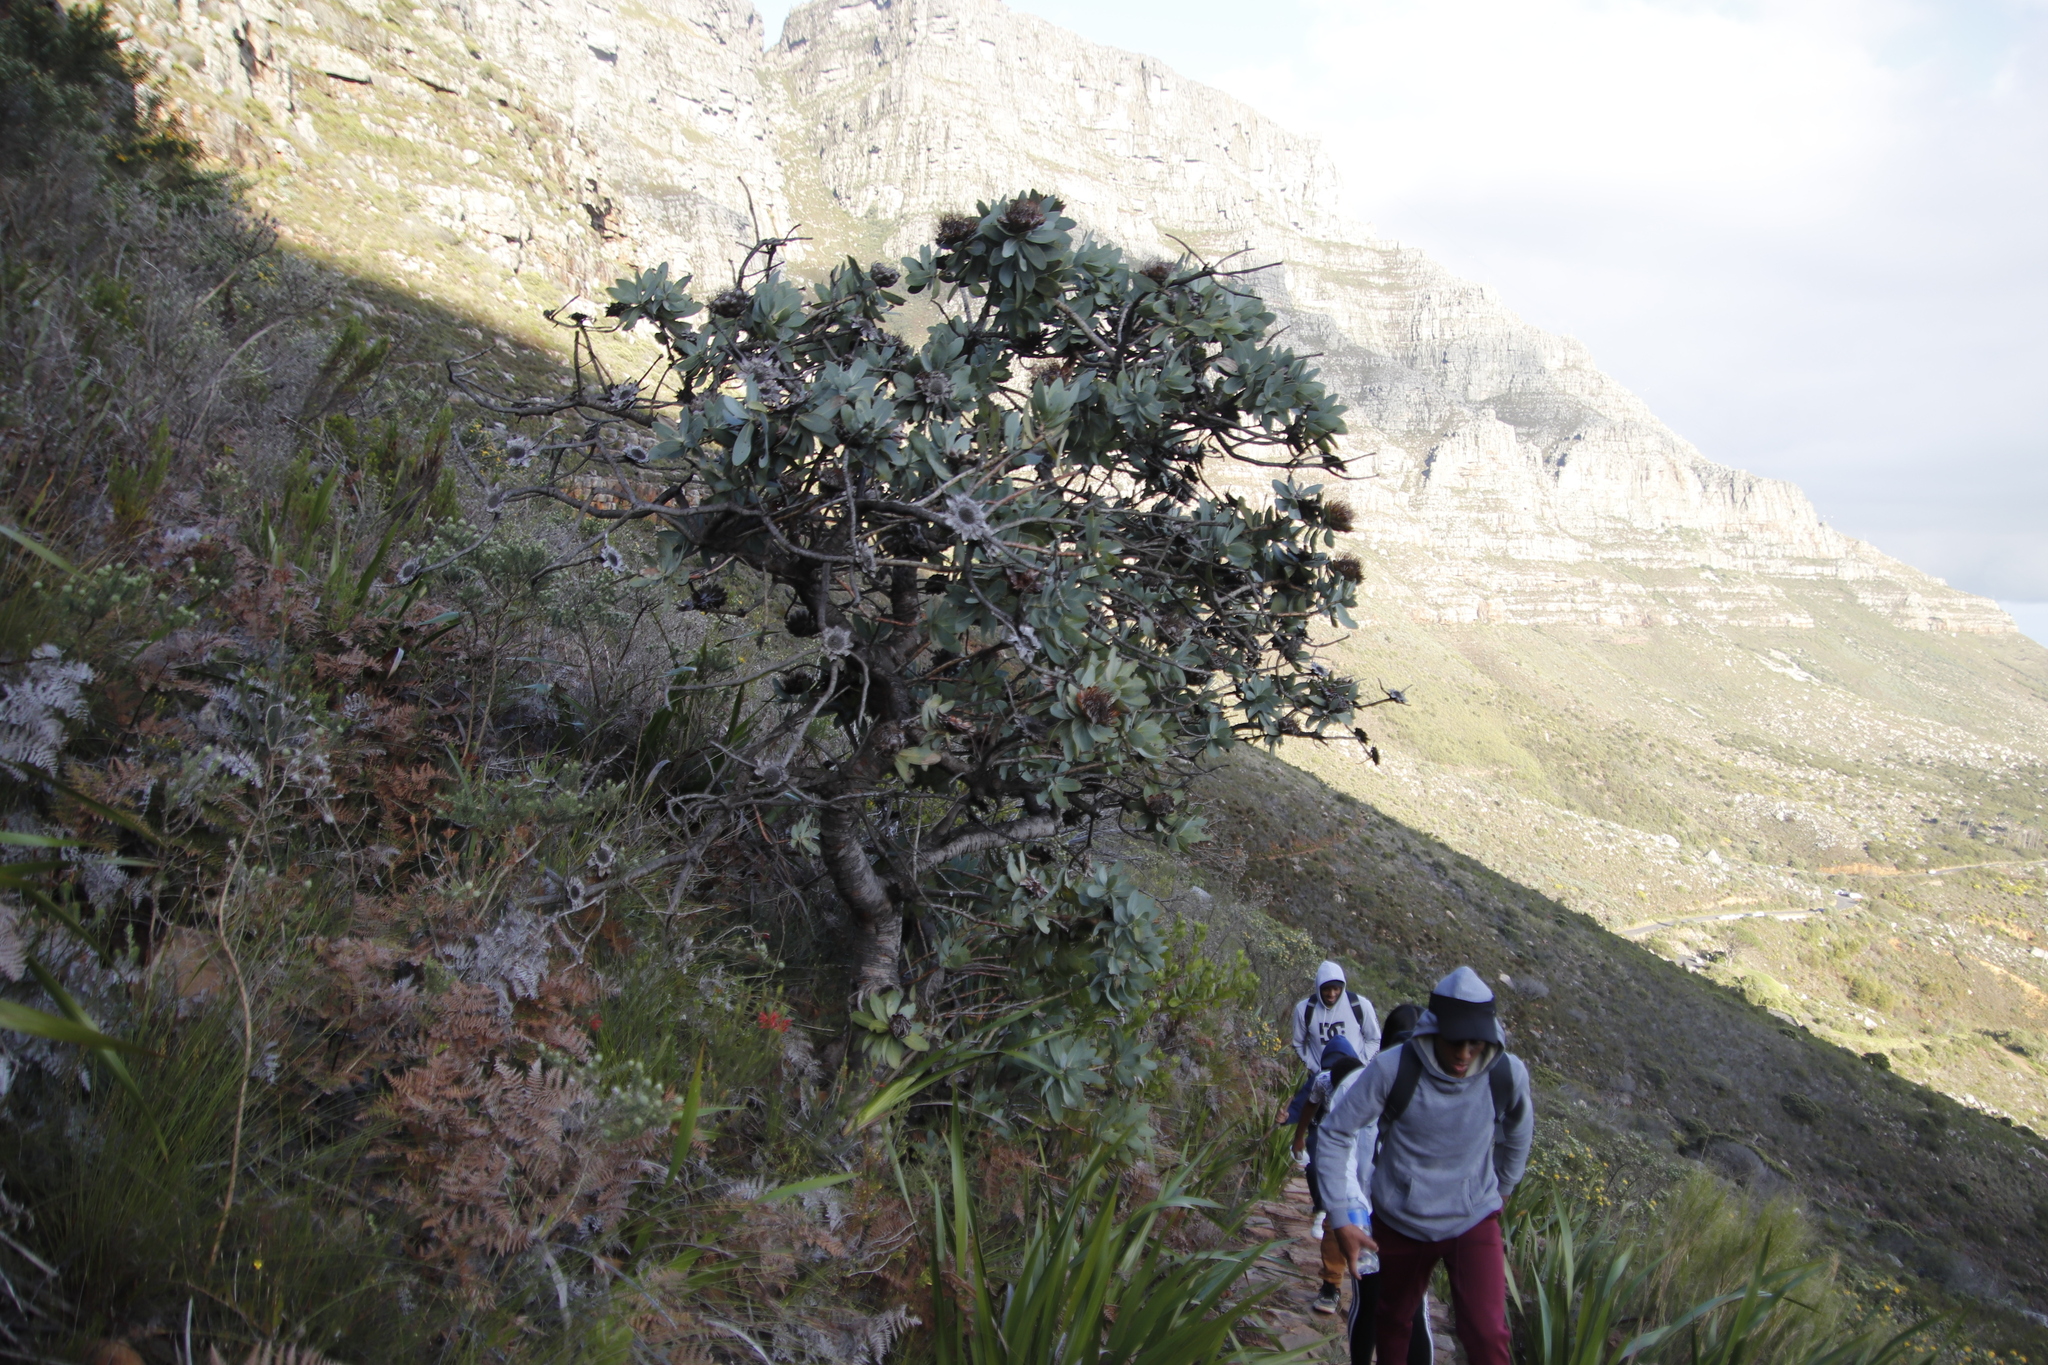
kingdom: Plantae
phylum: Tracheophyta
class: Magnoliopsida
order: Proteales
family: Proteaceae
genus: Protea
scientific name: Protea nitida
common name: Tree protea
